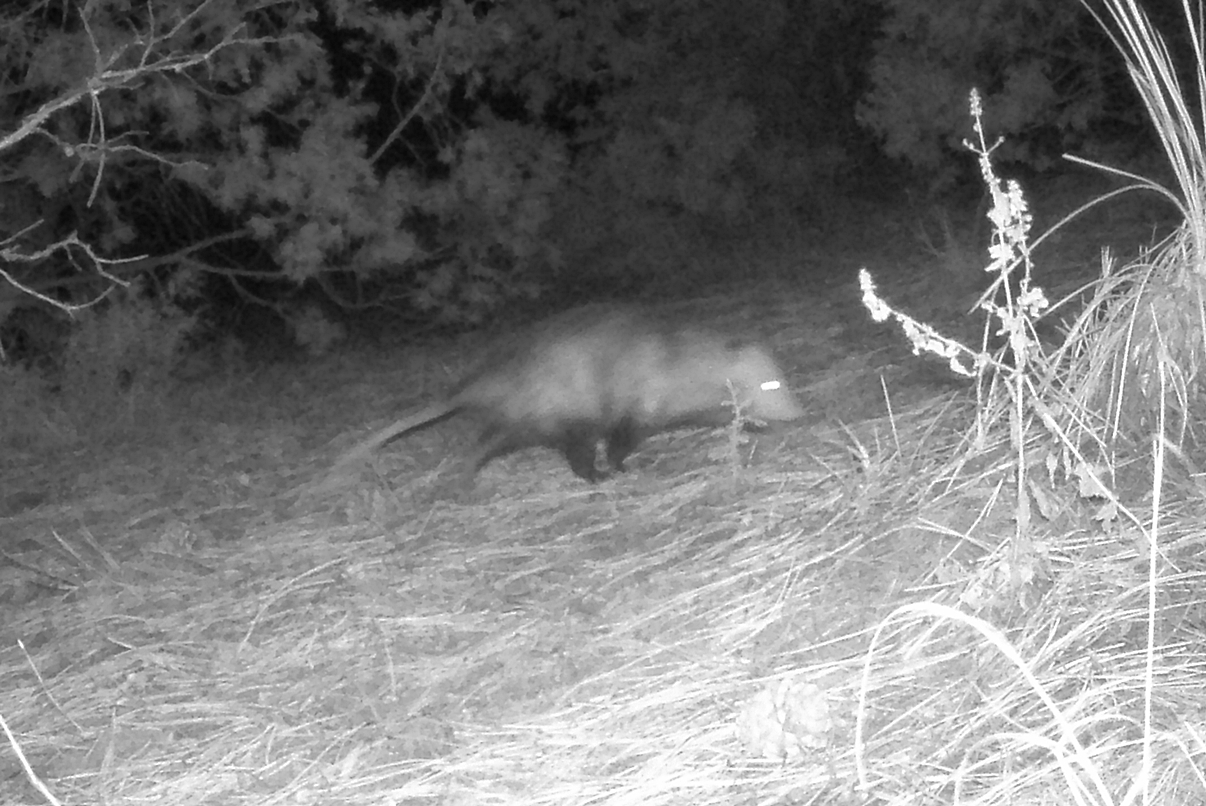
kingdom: Animalia
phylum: Chordata
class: Mammalia
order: Didelphimorphia
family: Didelphidae
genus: Didelphis
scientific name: Didelphis virginiana
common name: Virginia opossum
